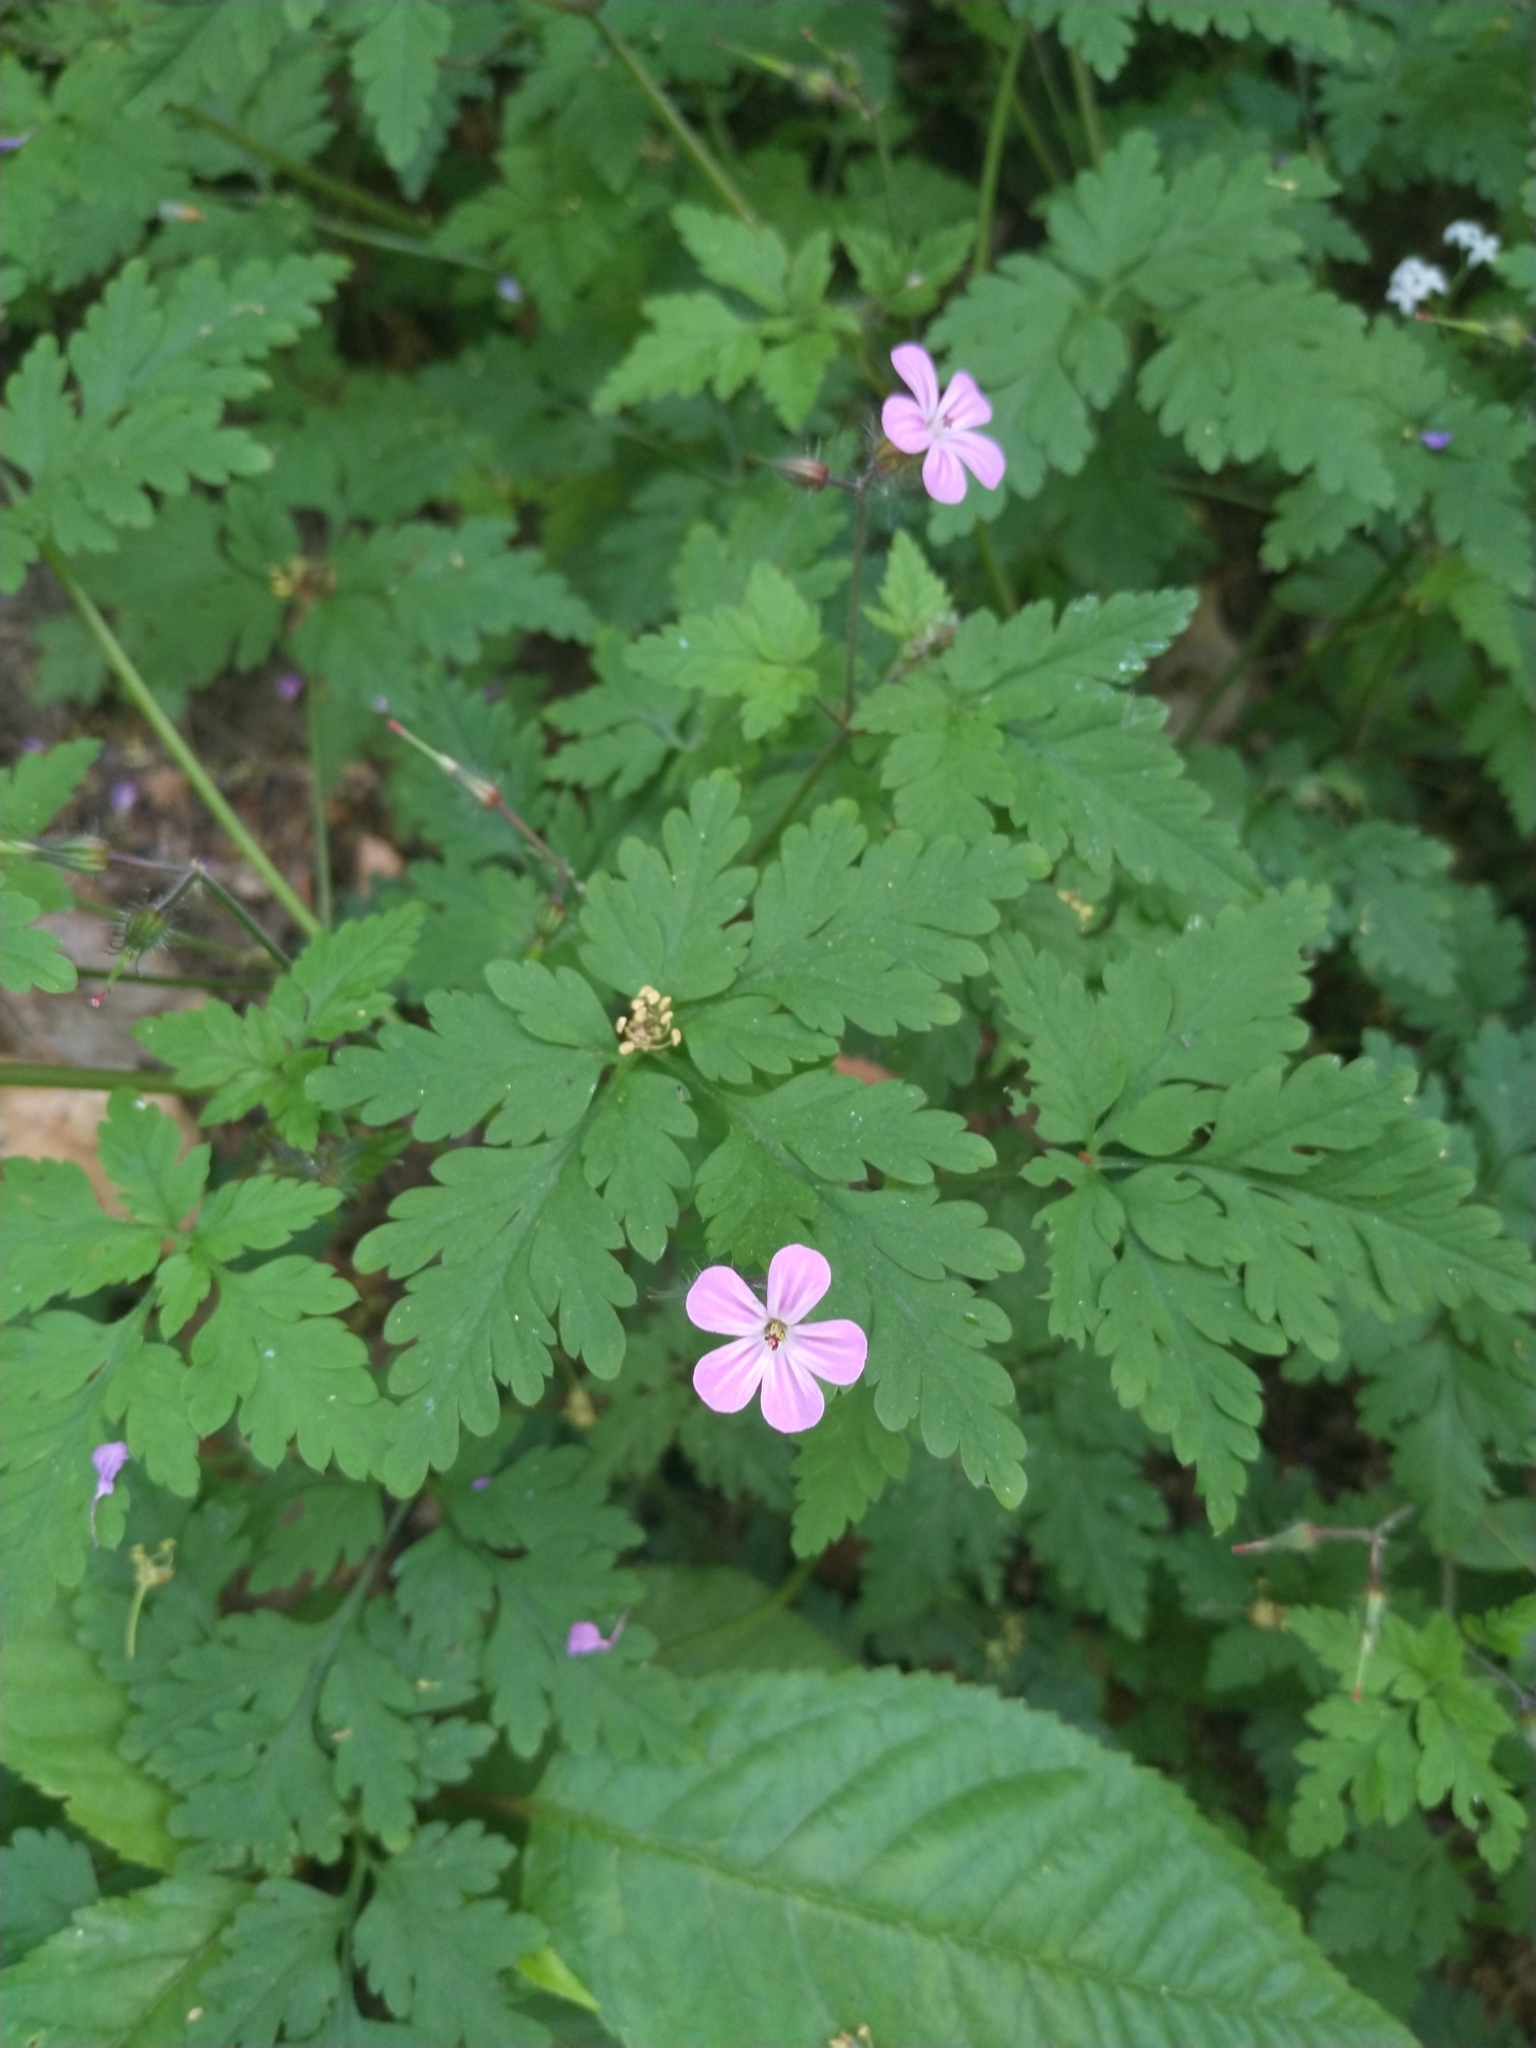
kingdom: Plantae
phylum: Tracheophyta
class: Magnoliopsida
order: Geraniales
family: Geraniaceae
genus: Geranium
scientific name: Geranium robertianum
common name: Herb-robert
